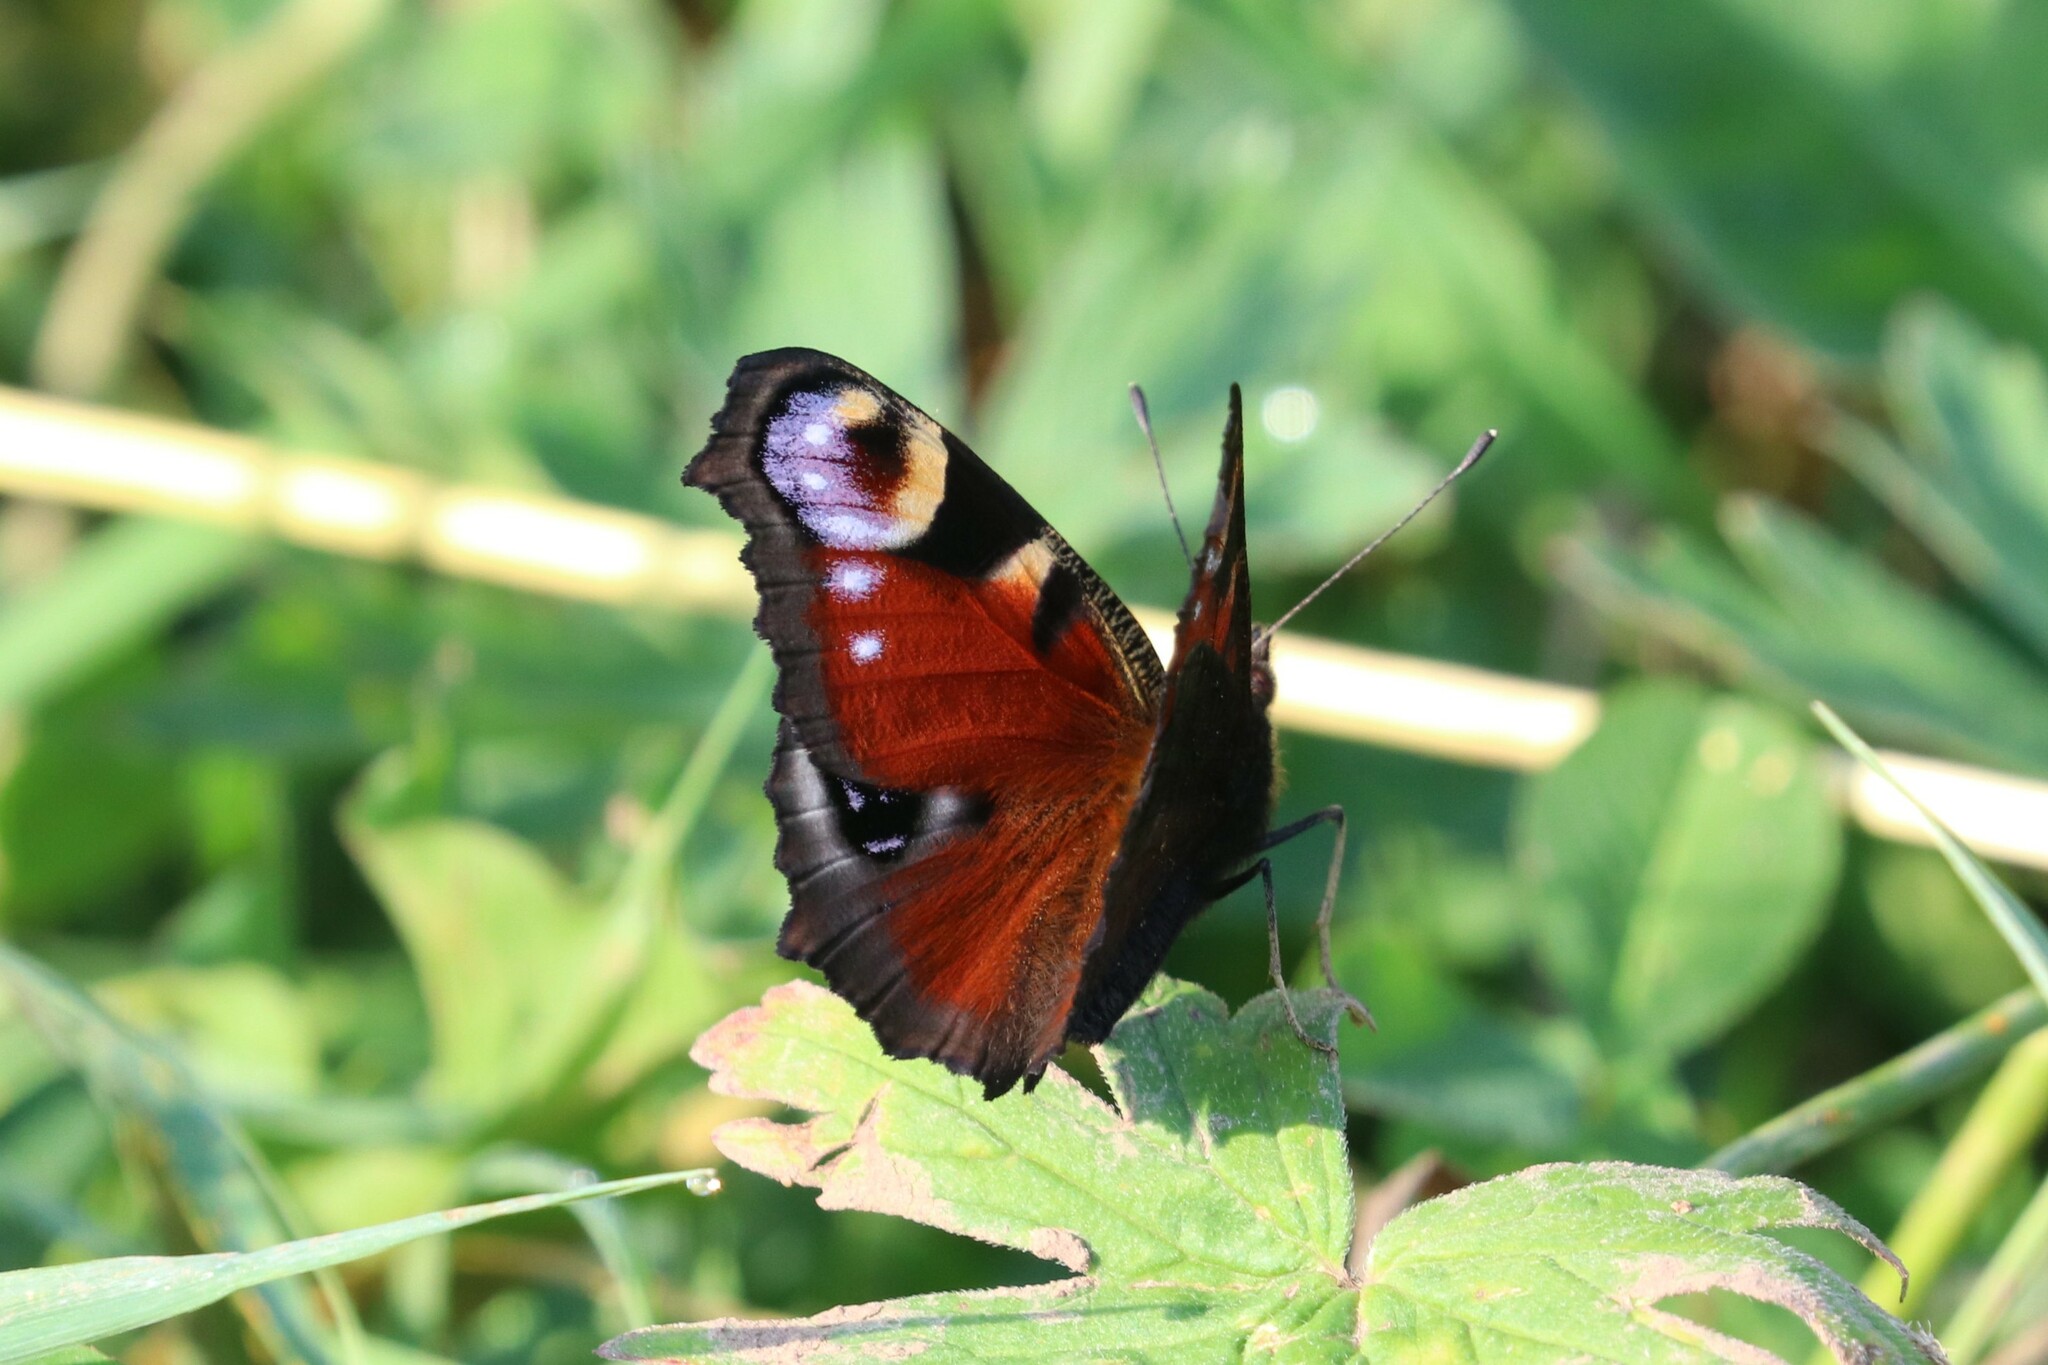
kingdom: Animalia
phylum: Arthropoda
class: Insecta
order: Lepidoptera
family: Nymphalidae
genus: Aglais
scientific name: Aglais io
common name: Peacock
